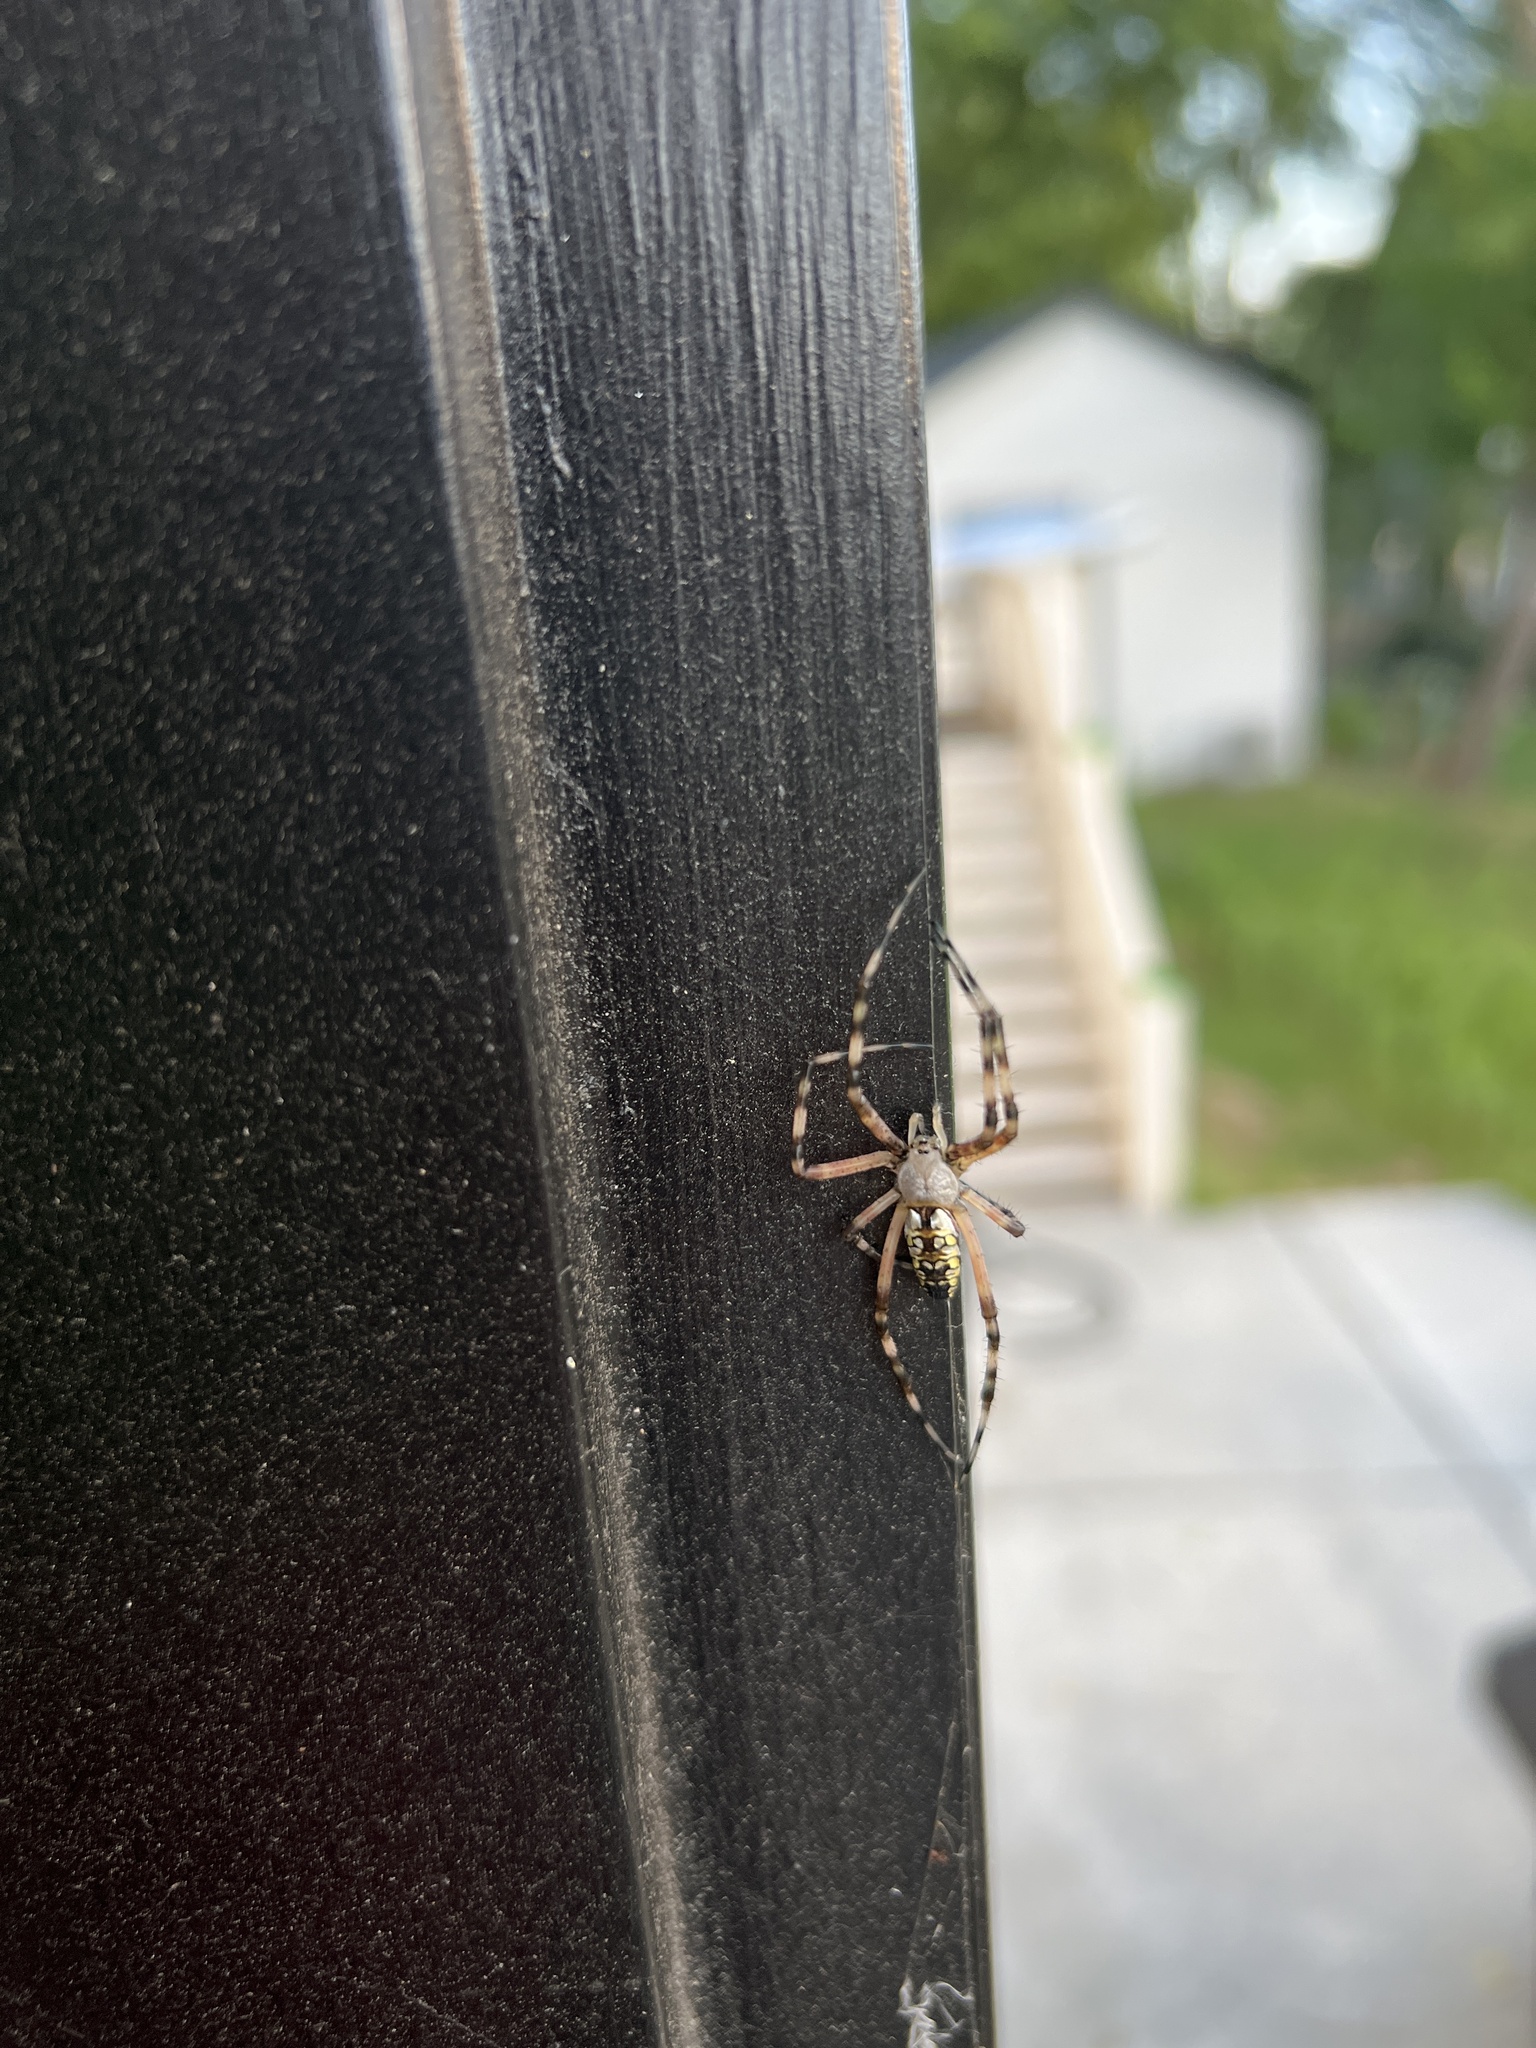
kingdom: Animalia
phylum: Arthropoda
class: Arachnida
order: Araneae
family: Araneidae
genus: Argiope
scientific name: Argiope aurantia
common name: Orb weavers
